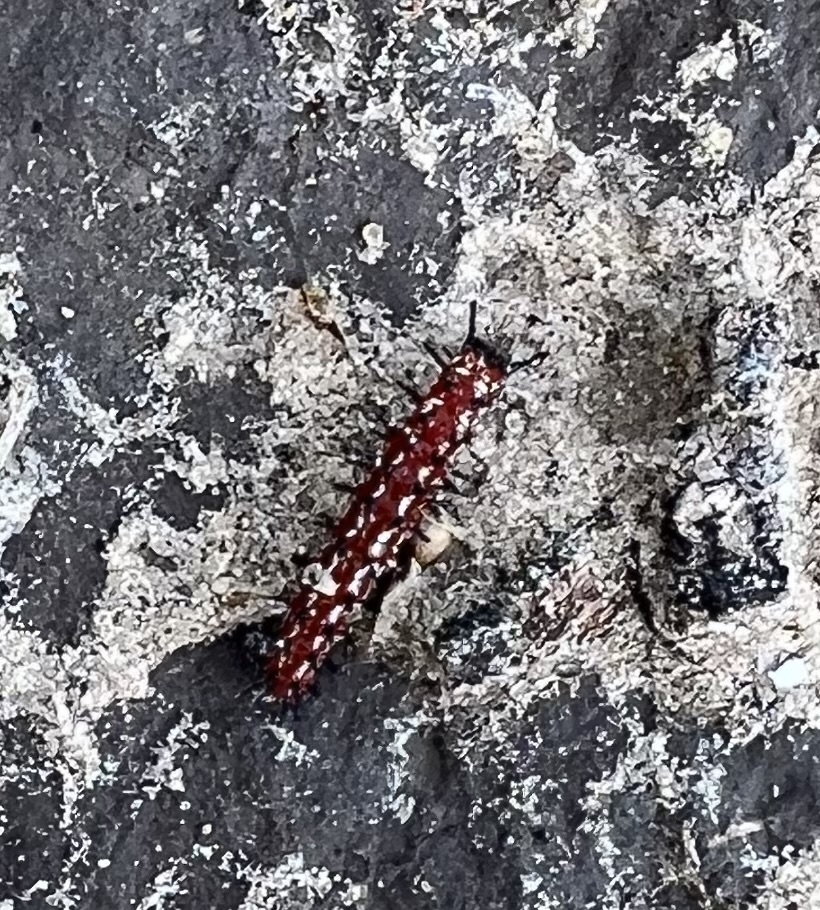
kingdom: Animalia
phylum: Arthropoda
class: Insecta
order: Lepidoptera
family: Nymphalidae
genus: Euptoieta
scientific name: Euptoieta claudia
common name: Variegated fritillary
